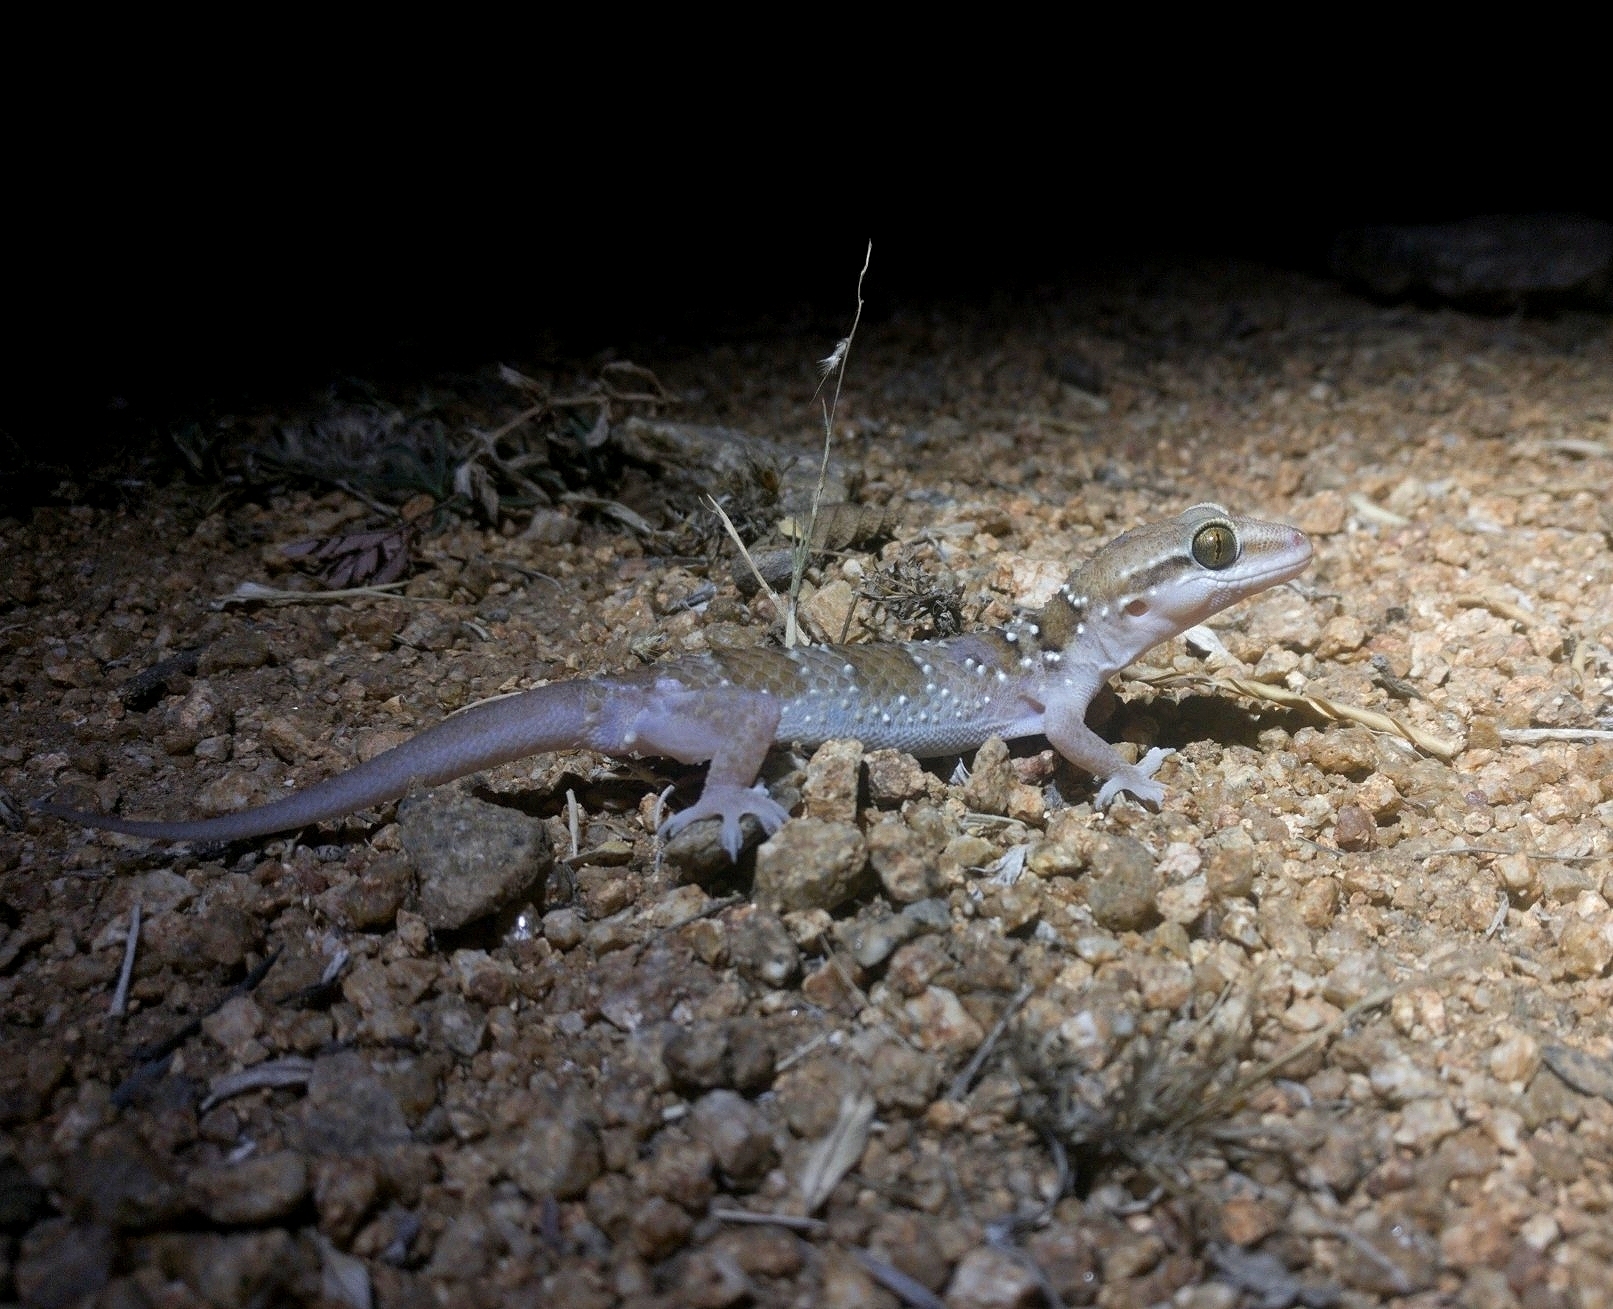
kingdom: Animalia
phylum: Chordata
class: Squamata
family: Gekkonidae
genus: Hemidactylus
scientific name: Hemidactylus triedrus
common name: Blotched house gecko
